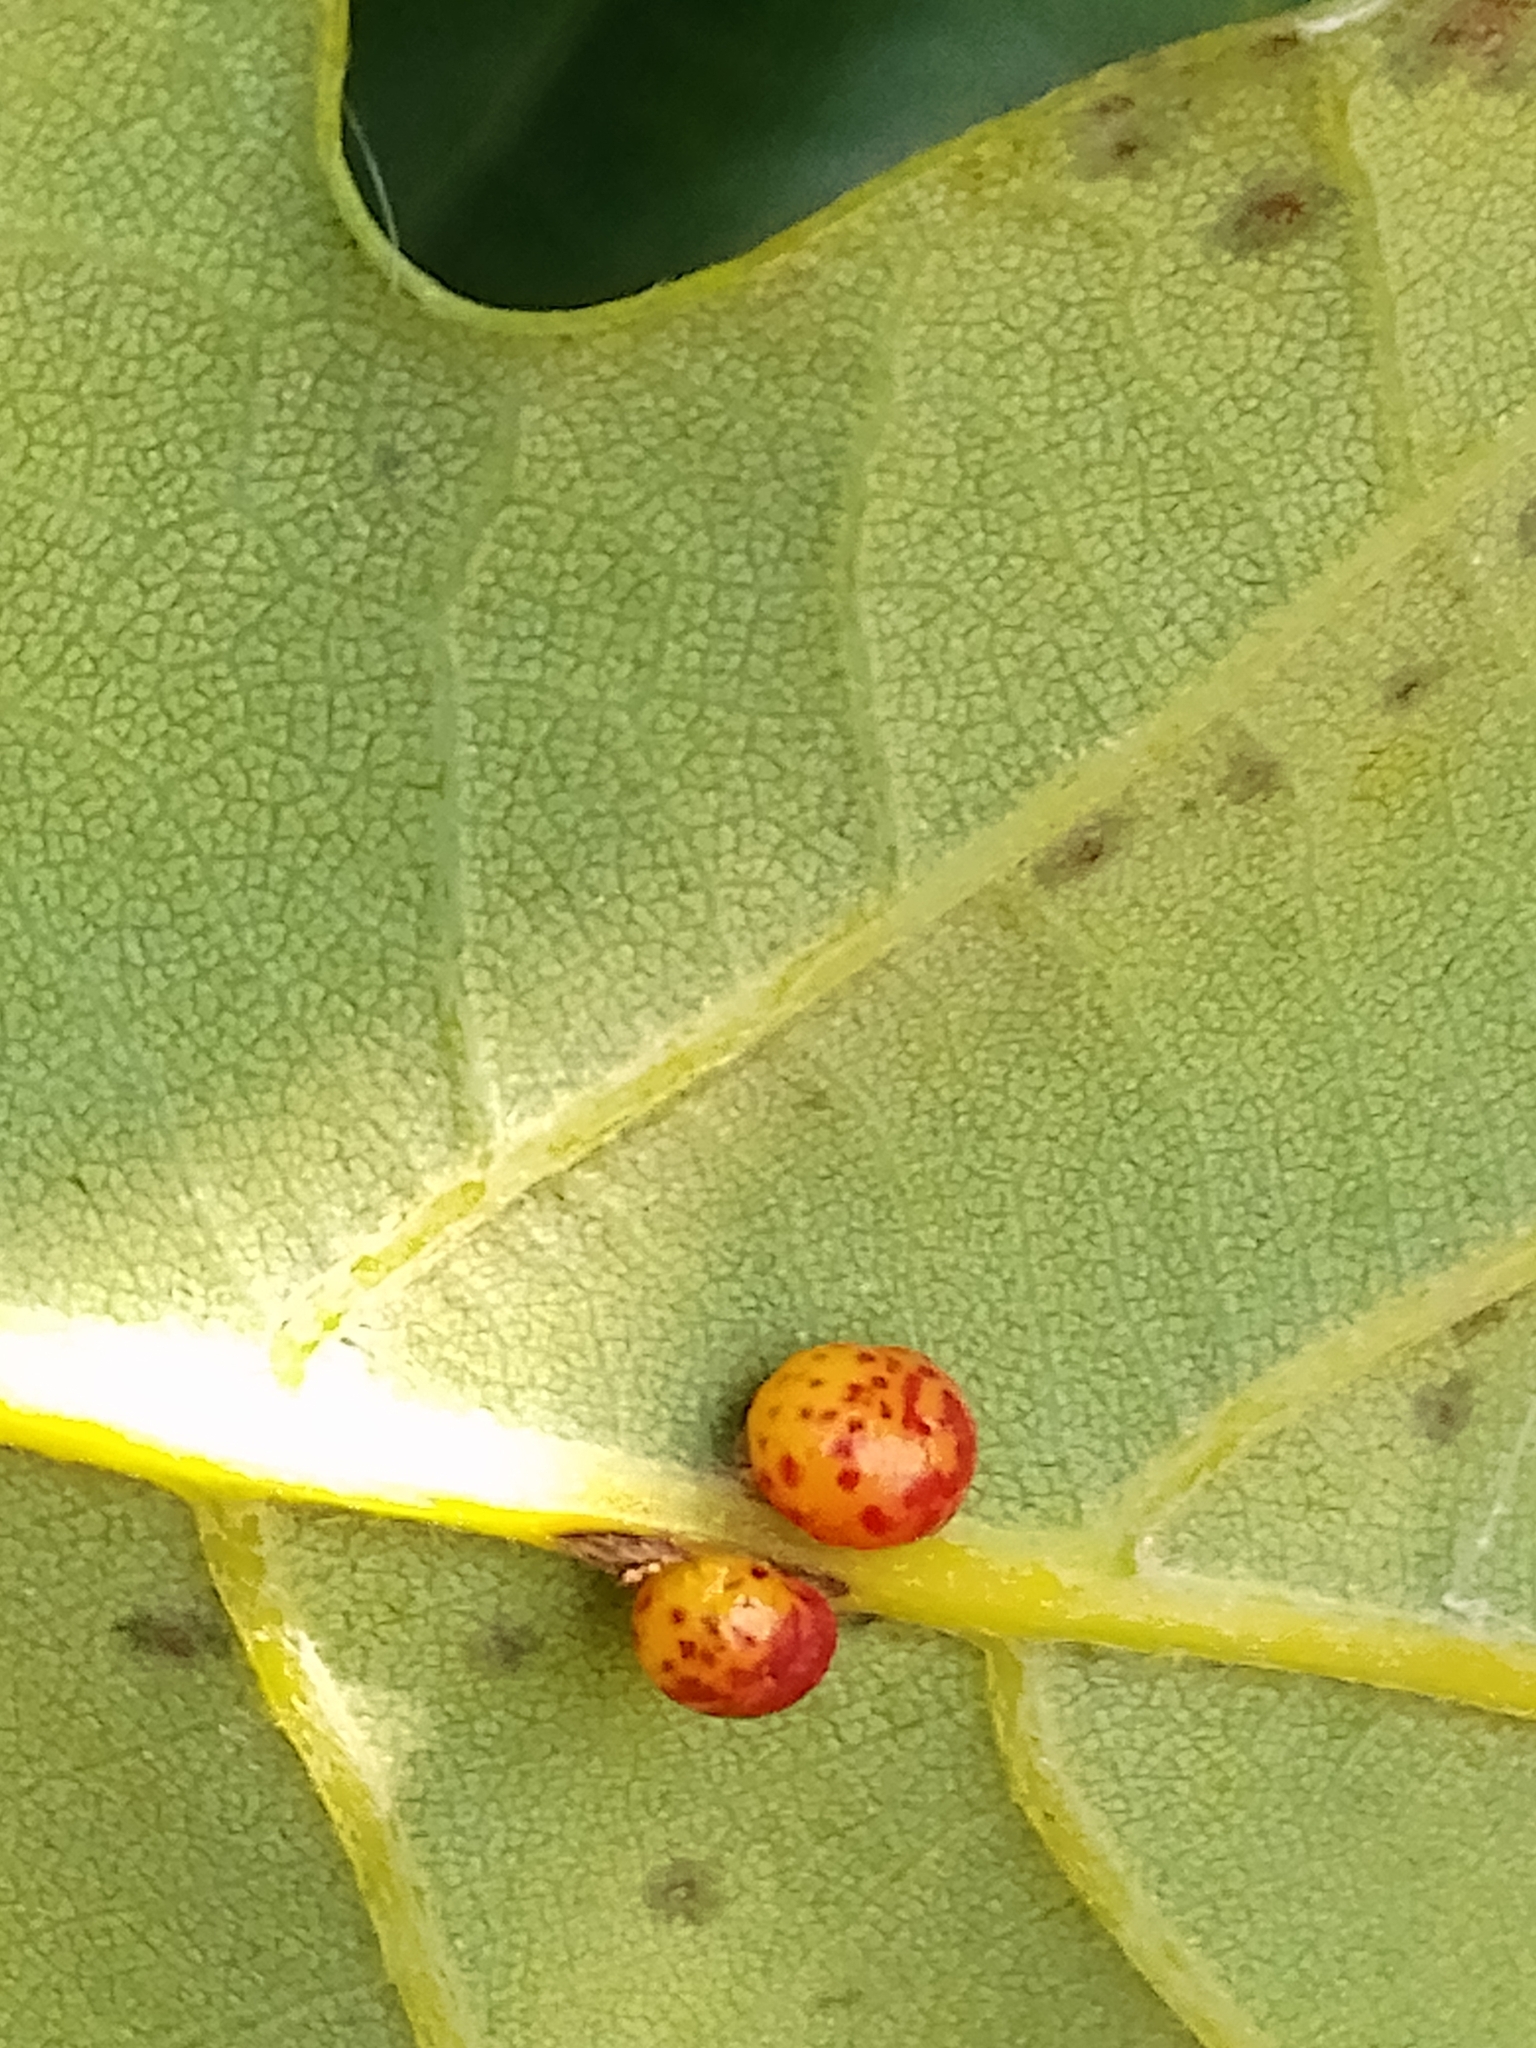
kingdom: Animalia
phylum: Arthropoda
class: Insecta
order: Hymenoptera
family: Cynipidae
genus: Neuroterus
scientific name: Neuroterus anthracinus
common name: Oyster gall
